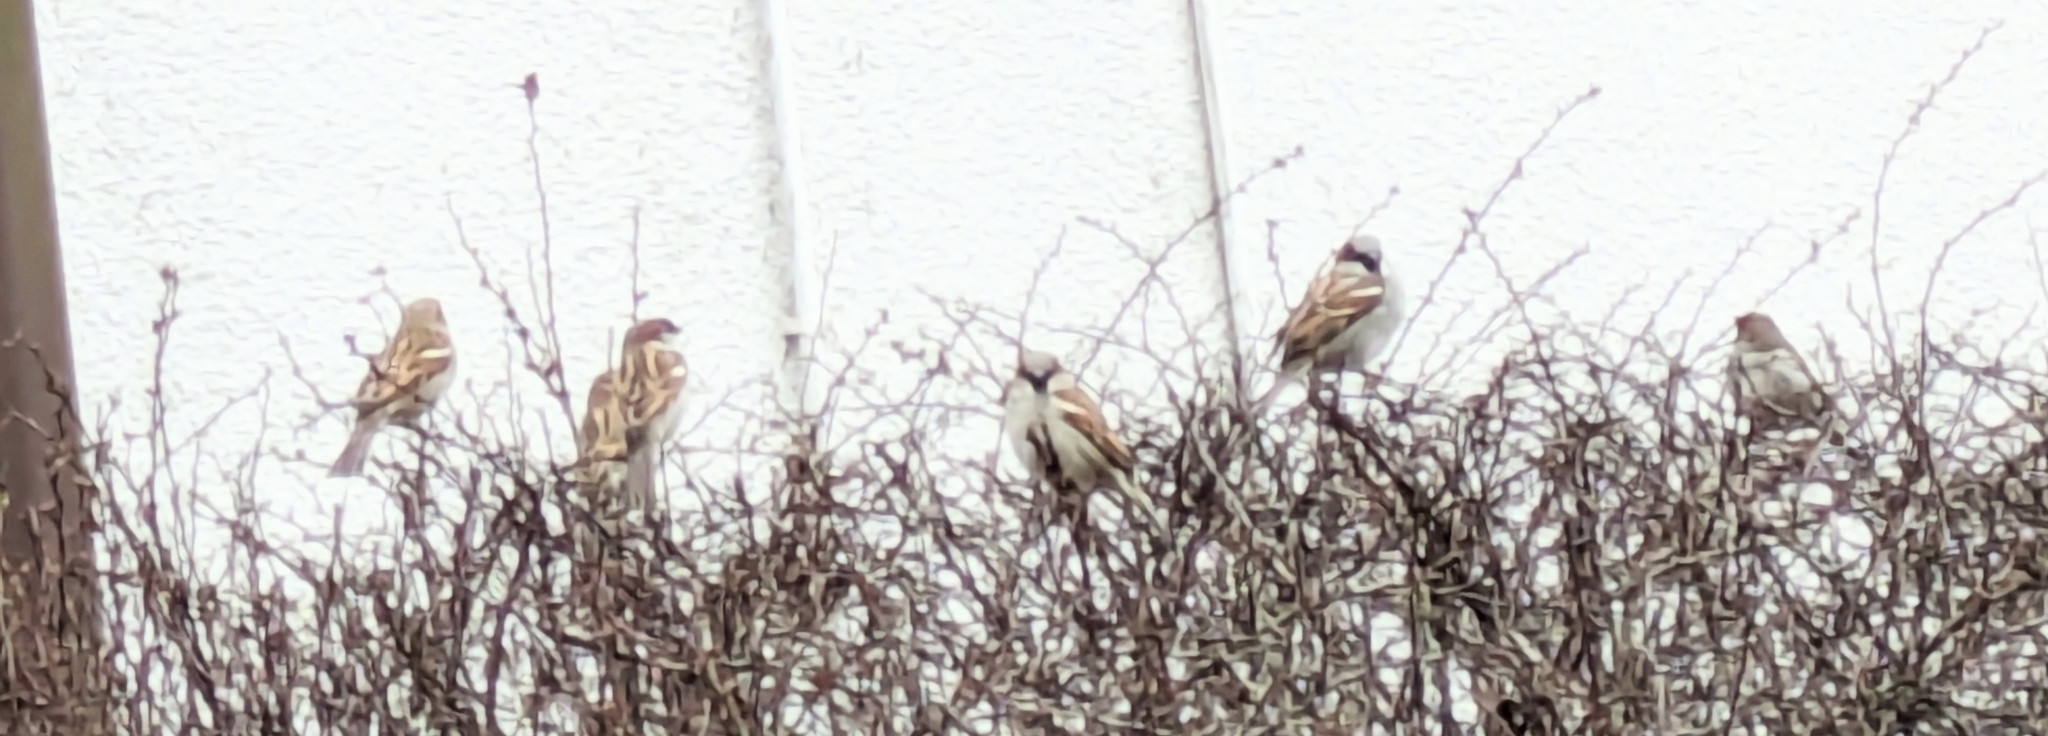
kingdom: Animalia
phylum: Chordata
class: Aves
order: Passeriformes
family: Passeridae
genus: Passer
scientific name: Passer domesticus
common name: House sparrow
